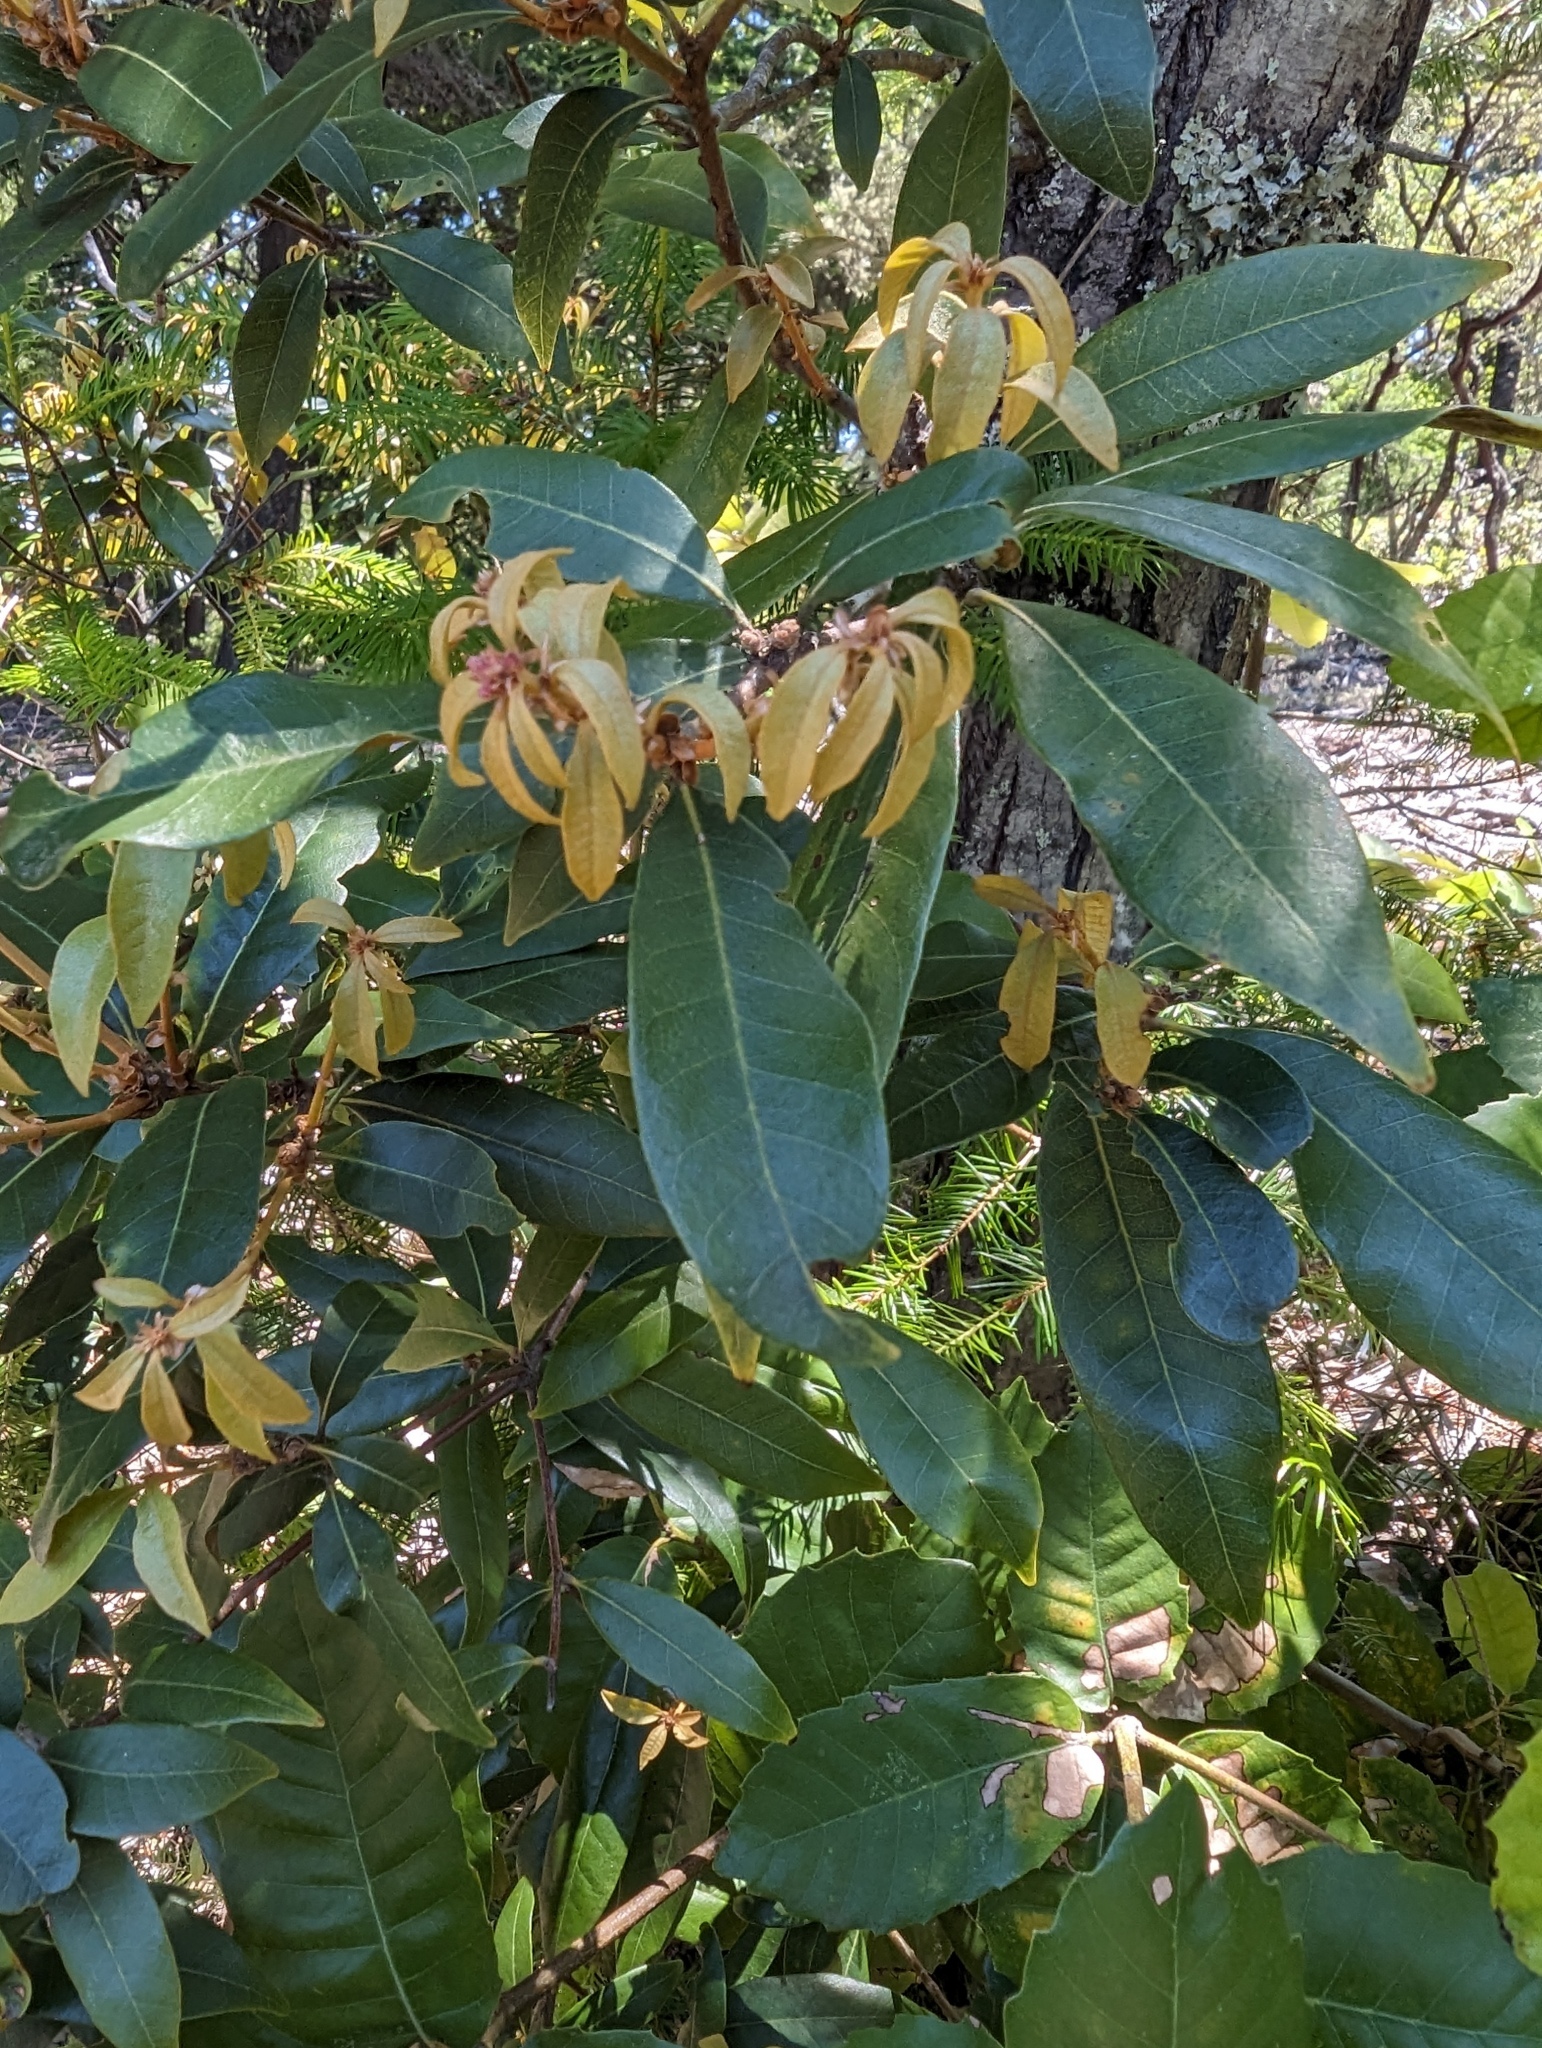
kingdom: Plantae
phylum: Tracheophyta
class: Magnoliopsida
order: Fagales
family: Fagaceae
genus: Chrysolepis
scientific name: Chrysolepis chrysophylla
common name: Giant chinquapin
